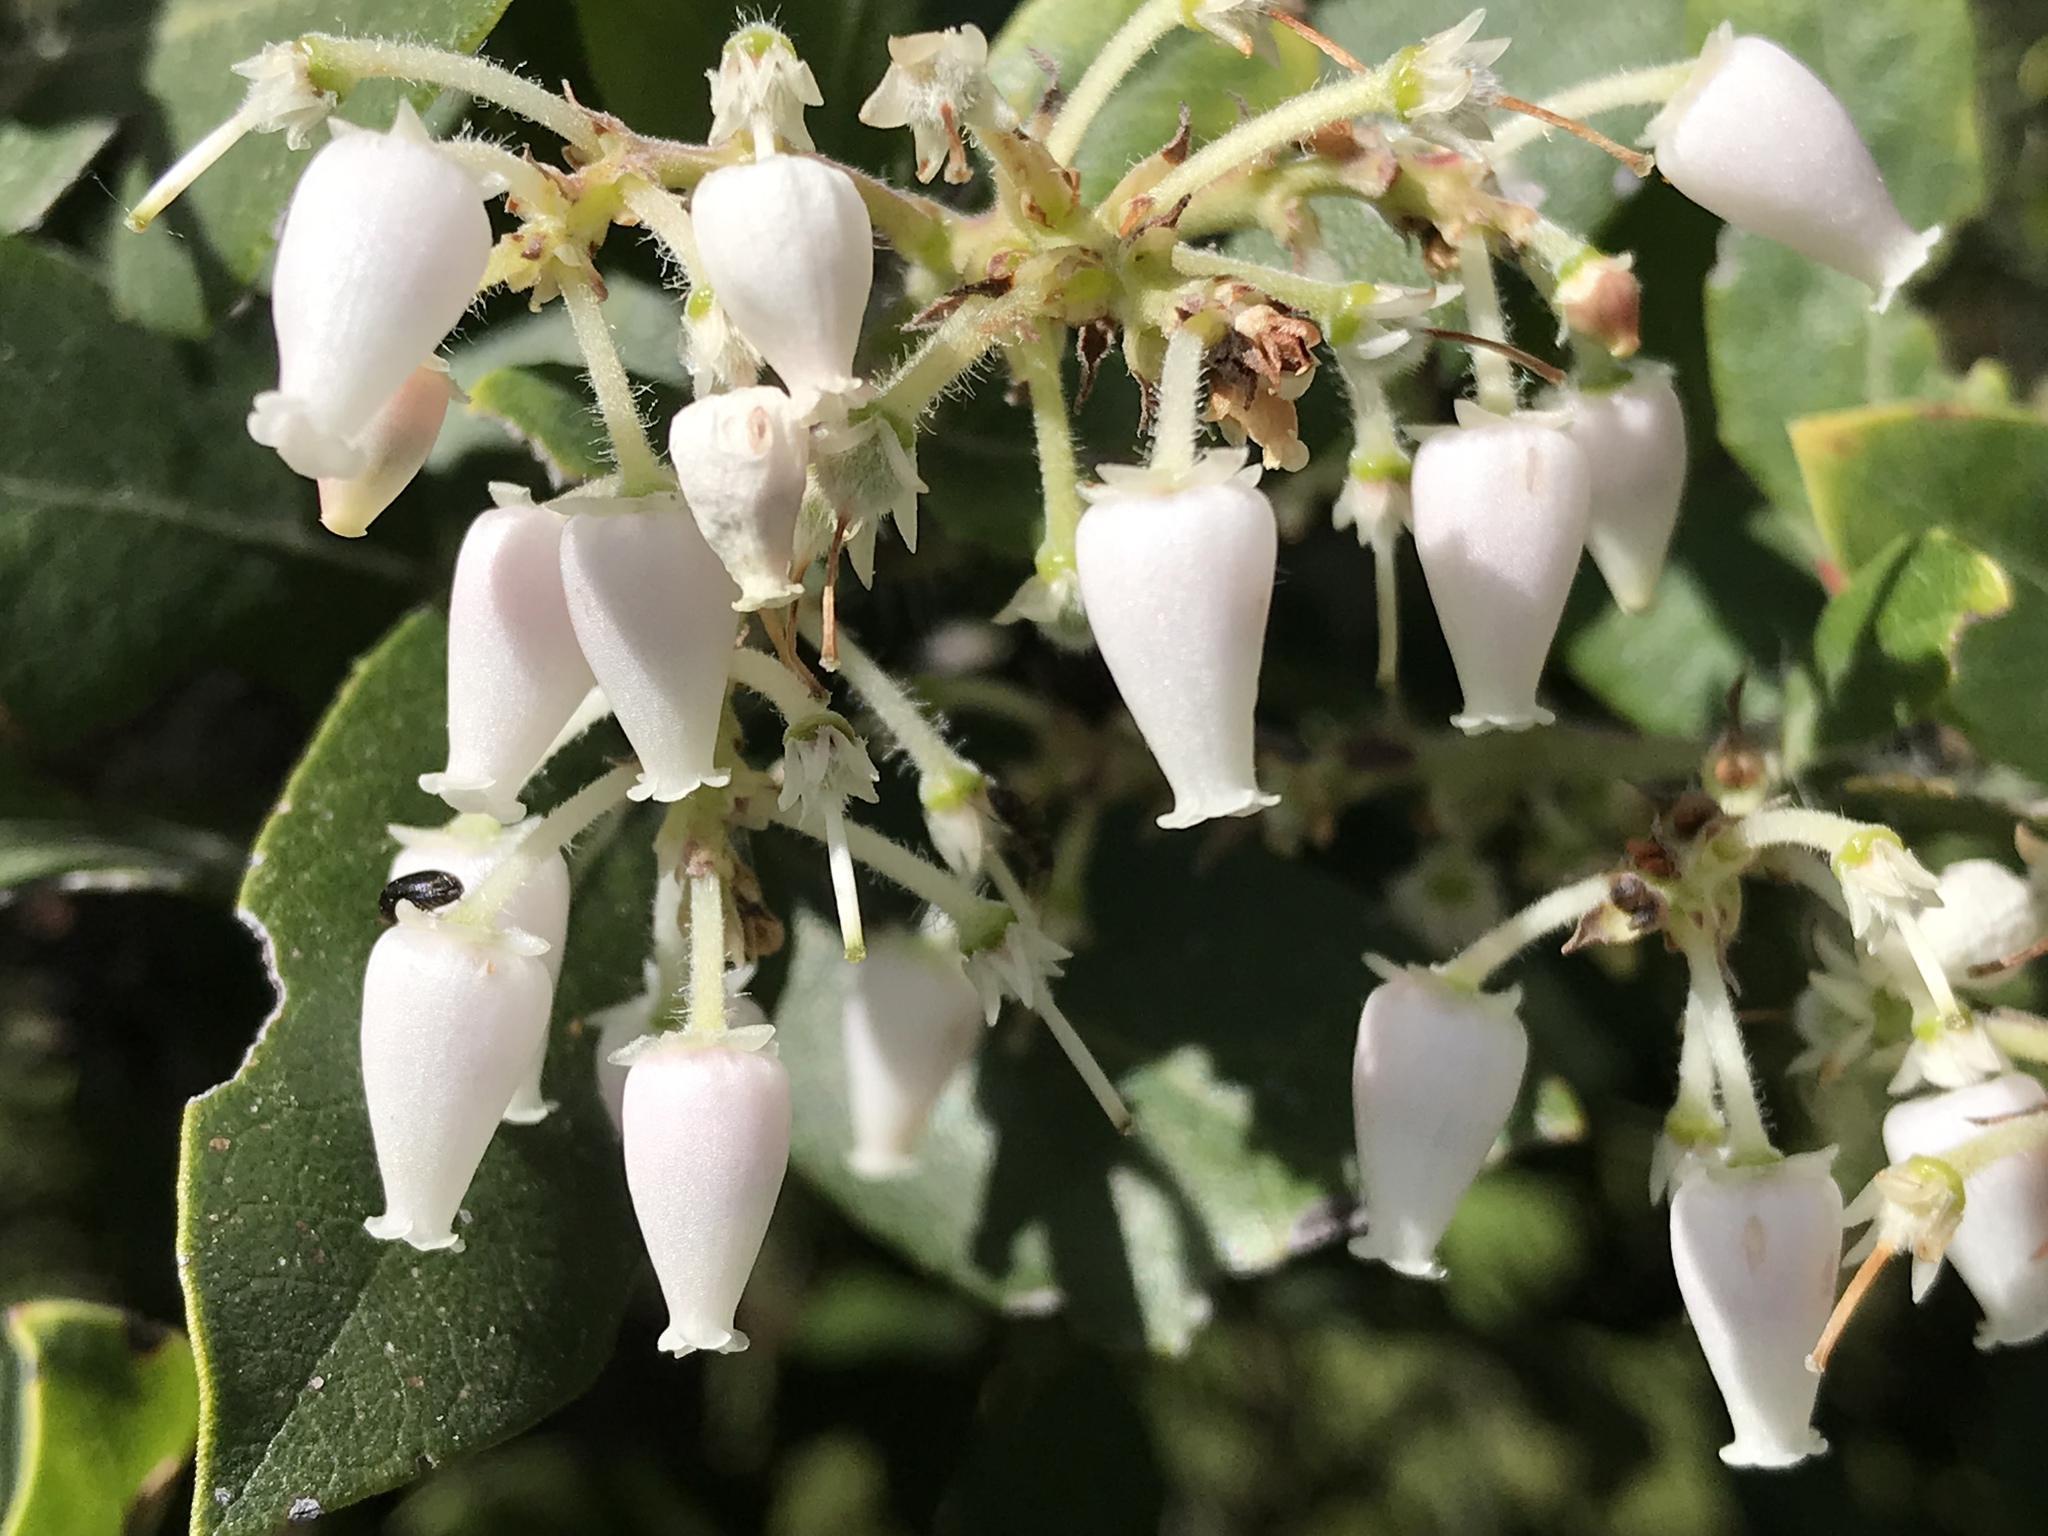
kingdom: Plantae
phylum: Tracheophyta
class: Magnoliopsida
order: Ericales
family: Ericaceae
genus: Arctostaphylos
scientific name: Arctostaphylos crustacea
